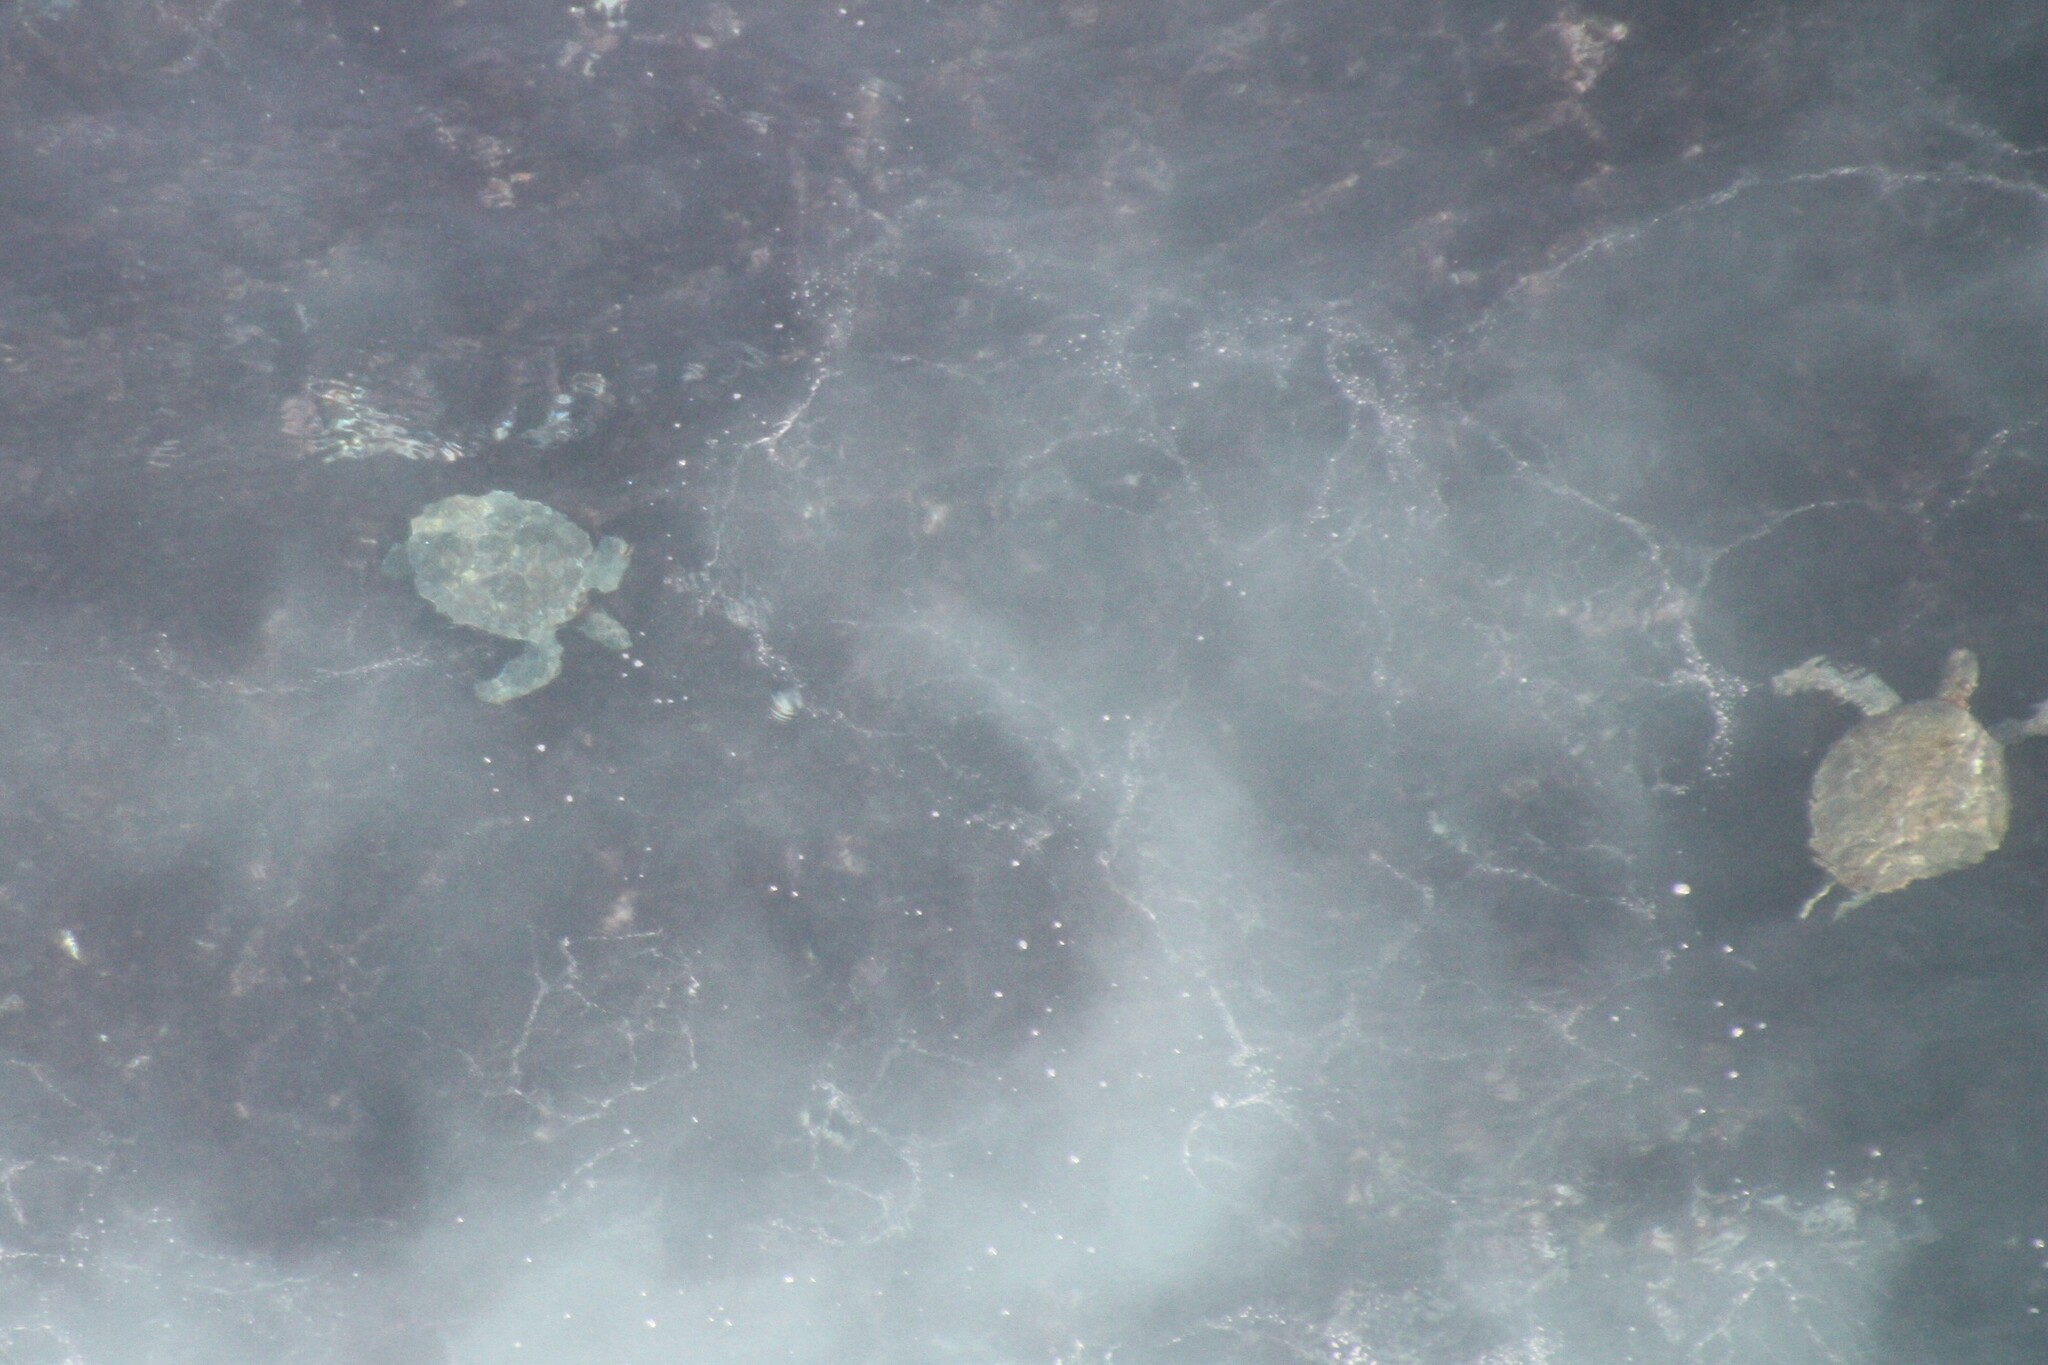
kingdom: Animalia
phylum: Chordata
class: Testudines
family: Cheloniidae
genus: Chelonia
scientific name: Chelonia mydas
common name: Green turtle
